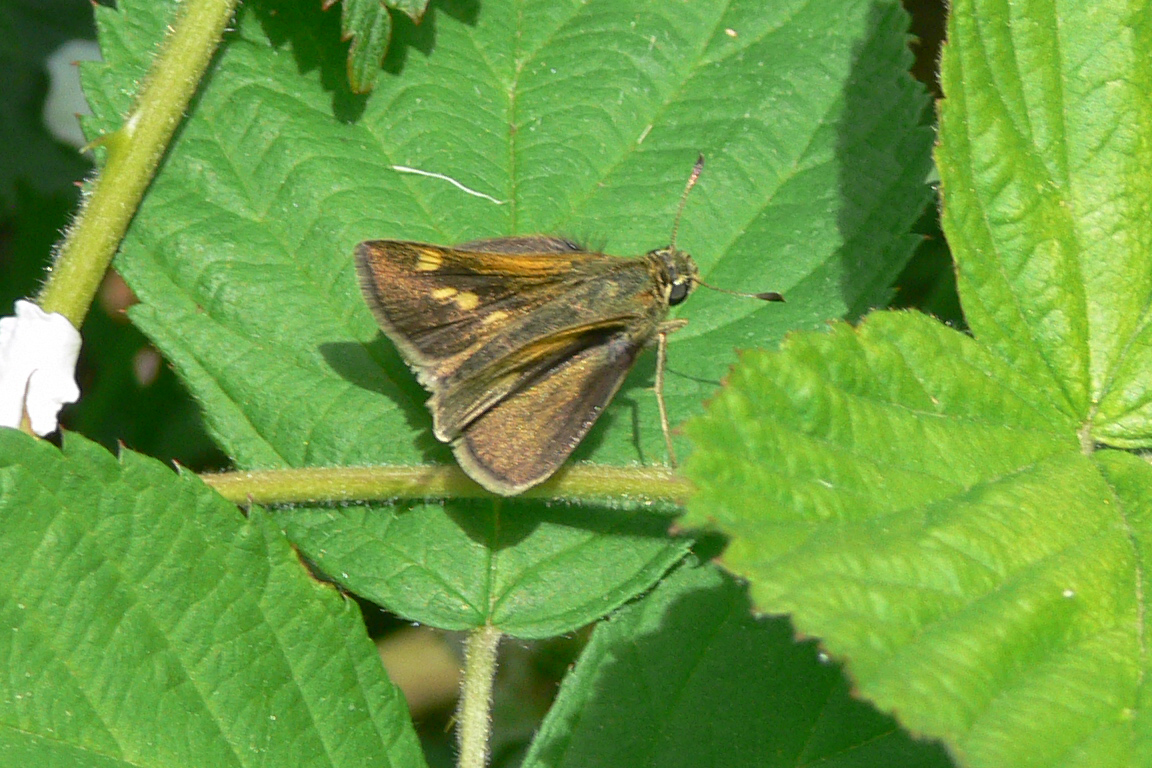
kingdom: Animalia
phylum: Arthropoda
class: Insecta
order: Lepidoptera
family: Hesperiidae
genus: Polites
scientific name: Polites themistocles
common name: Tawny-edged skipper
